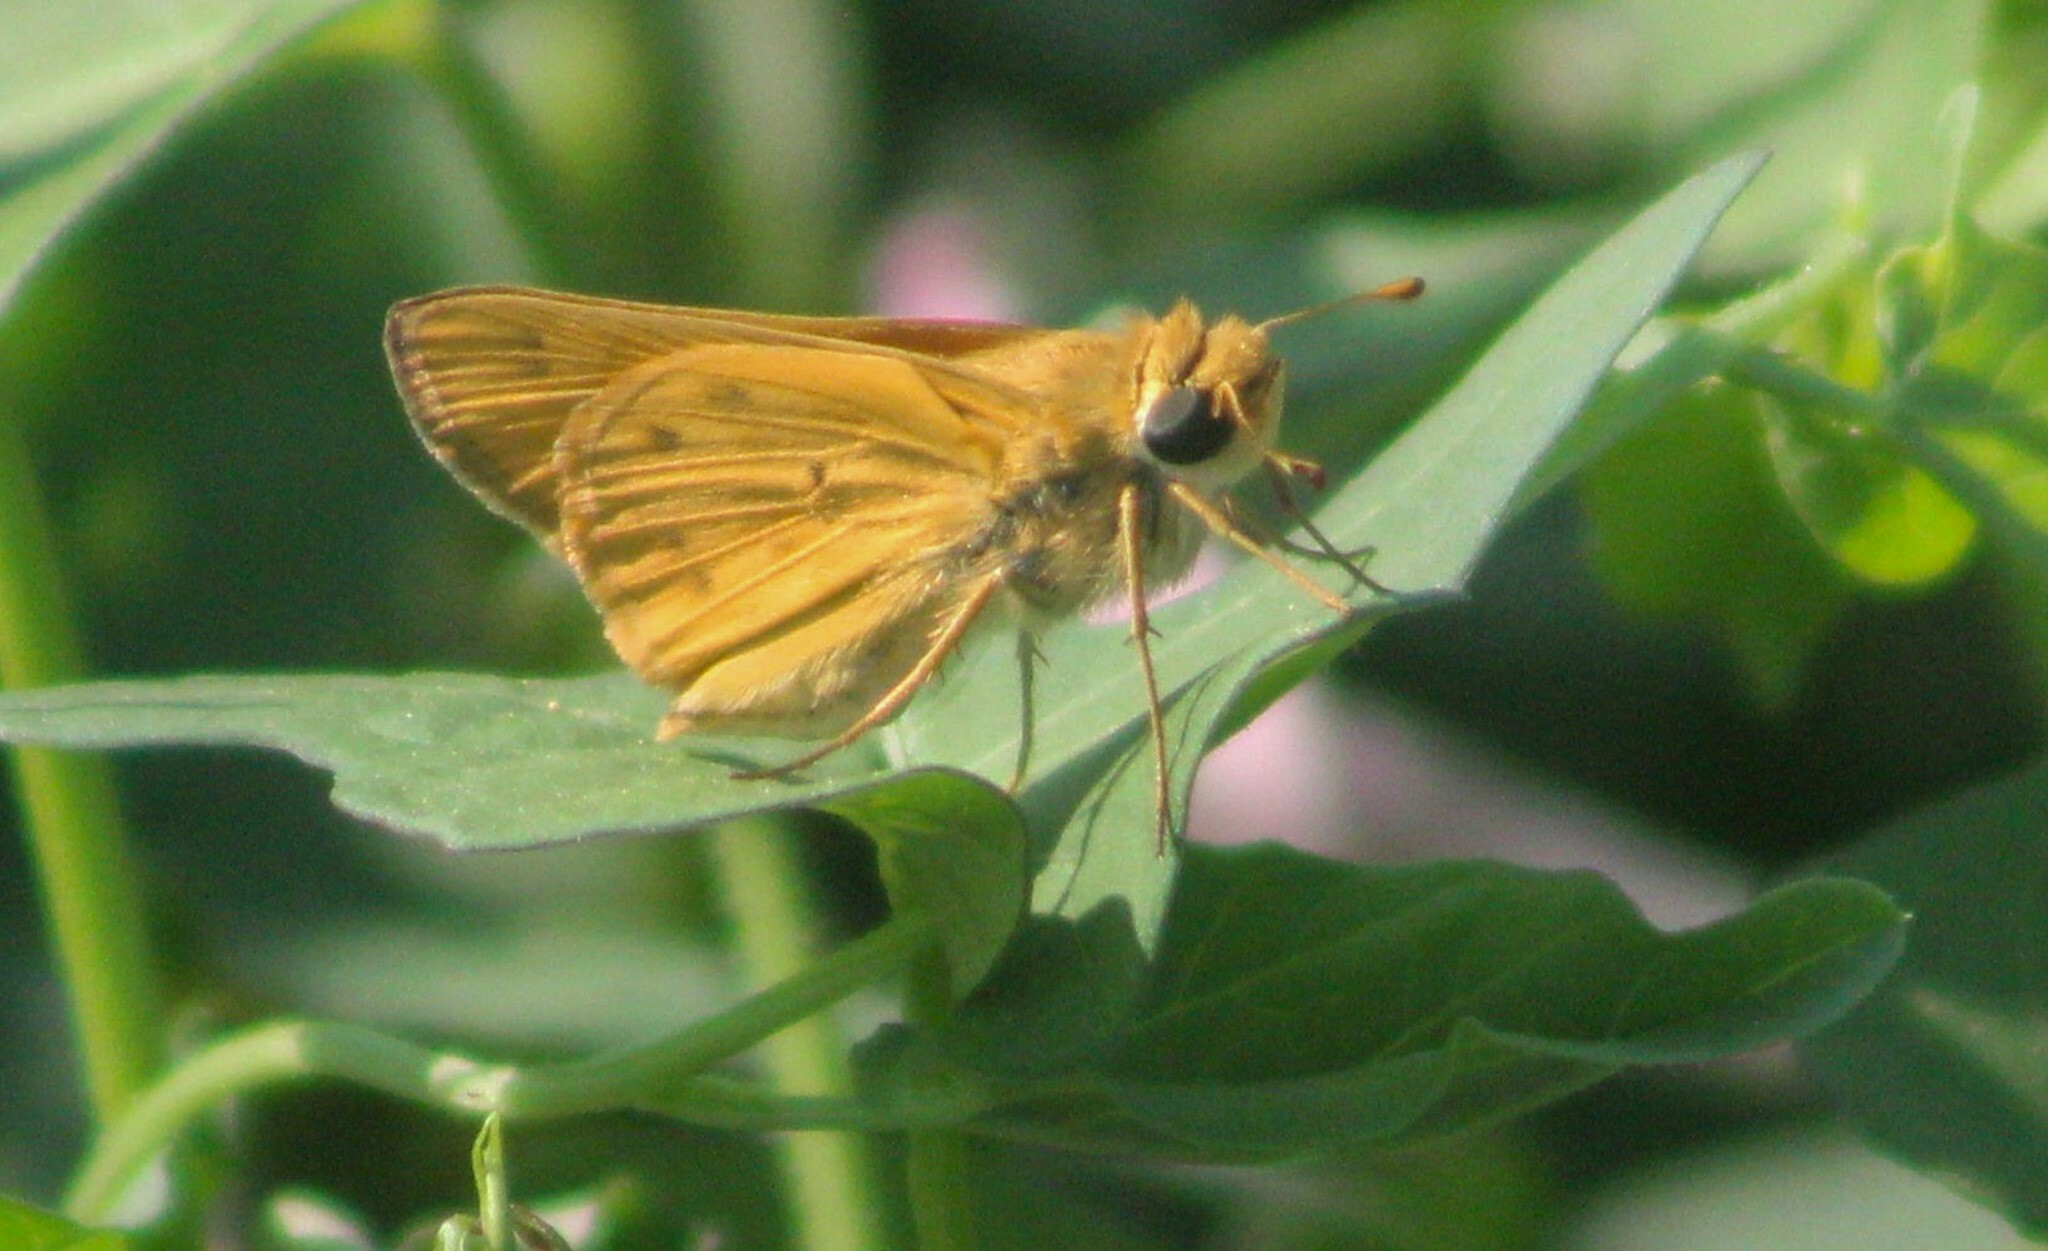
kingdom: Animalia
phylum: Arthropoda
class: Insecta
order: Lepidoptera
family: Hesperiidae
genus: Hylephila
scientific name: Hylephila phyleus
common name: Fiery skipper
